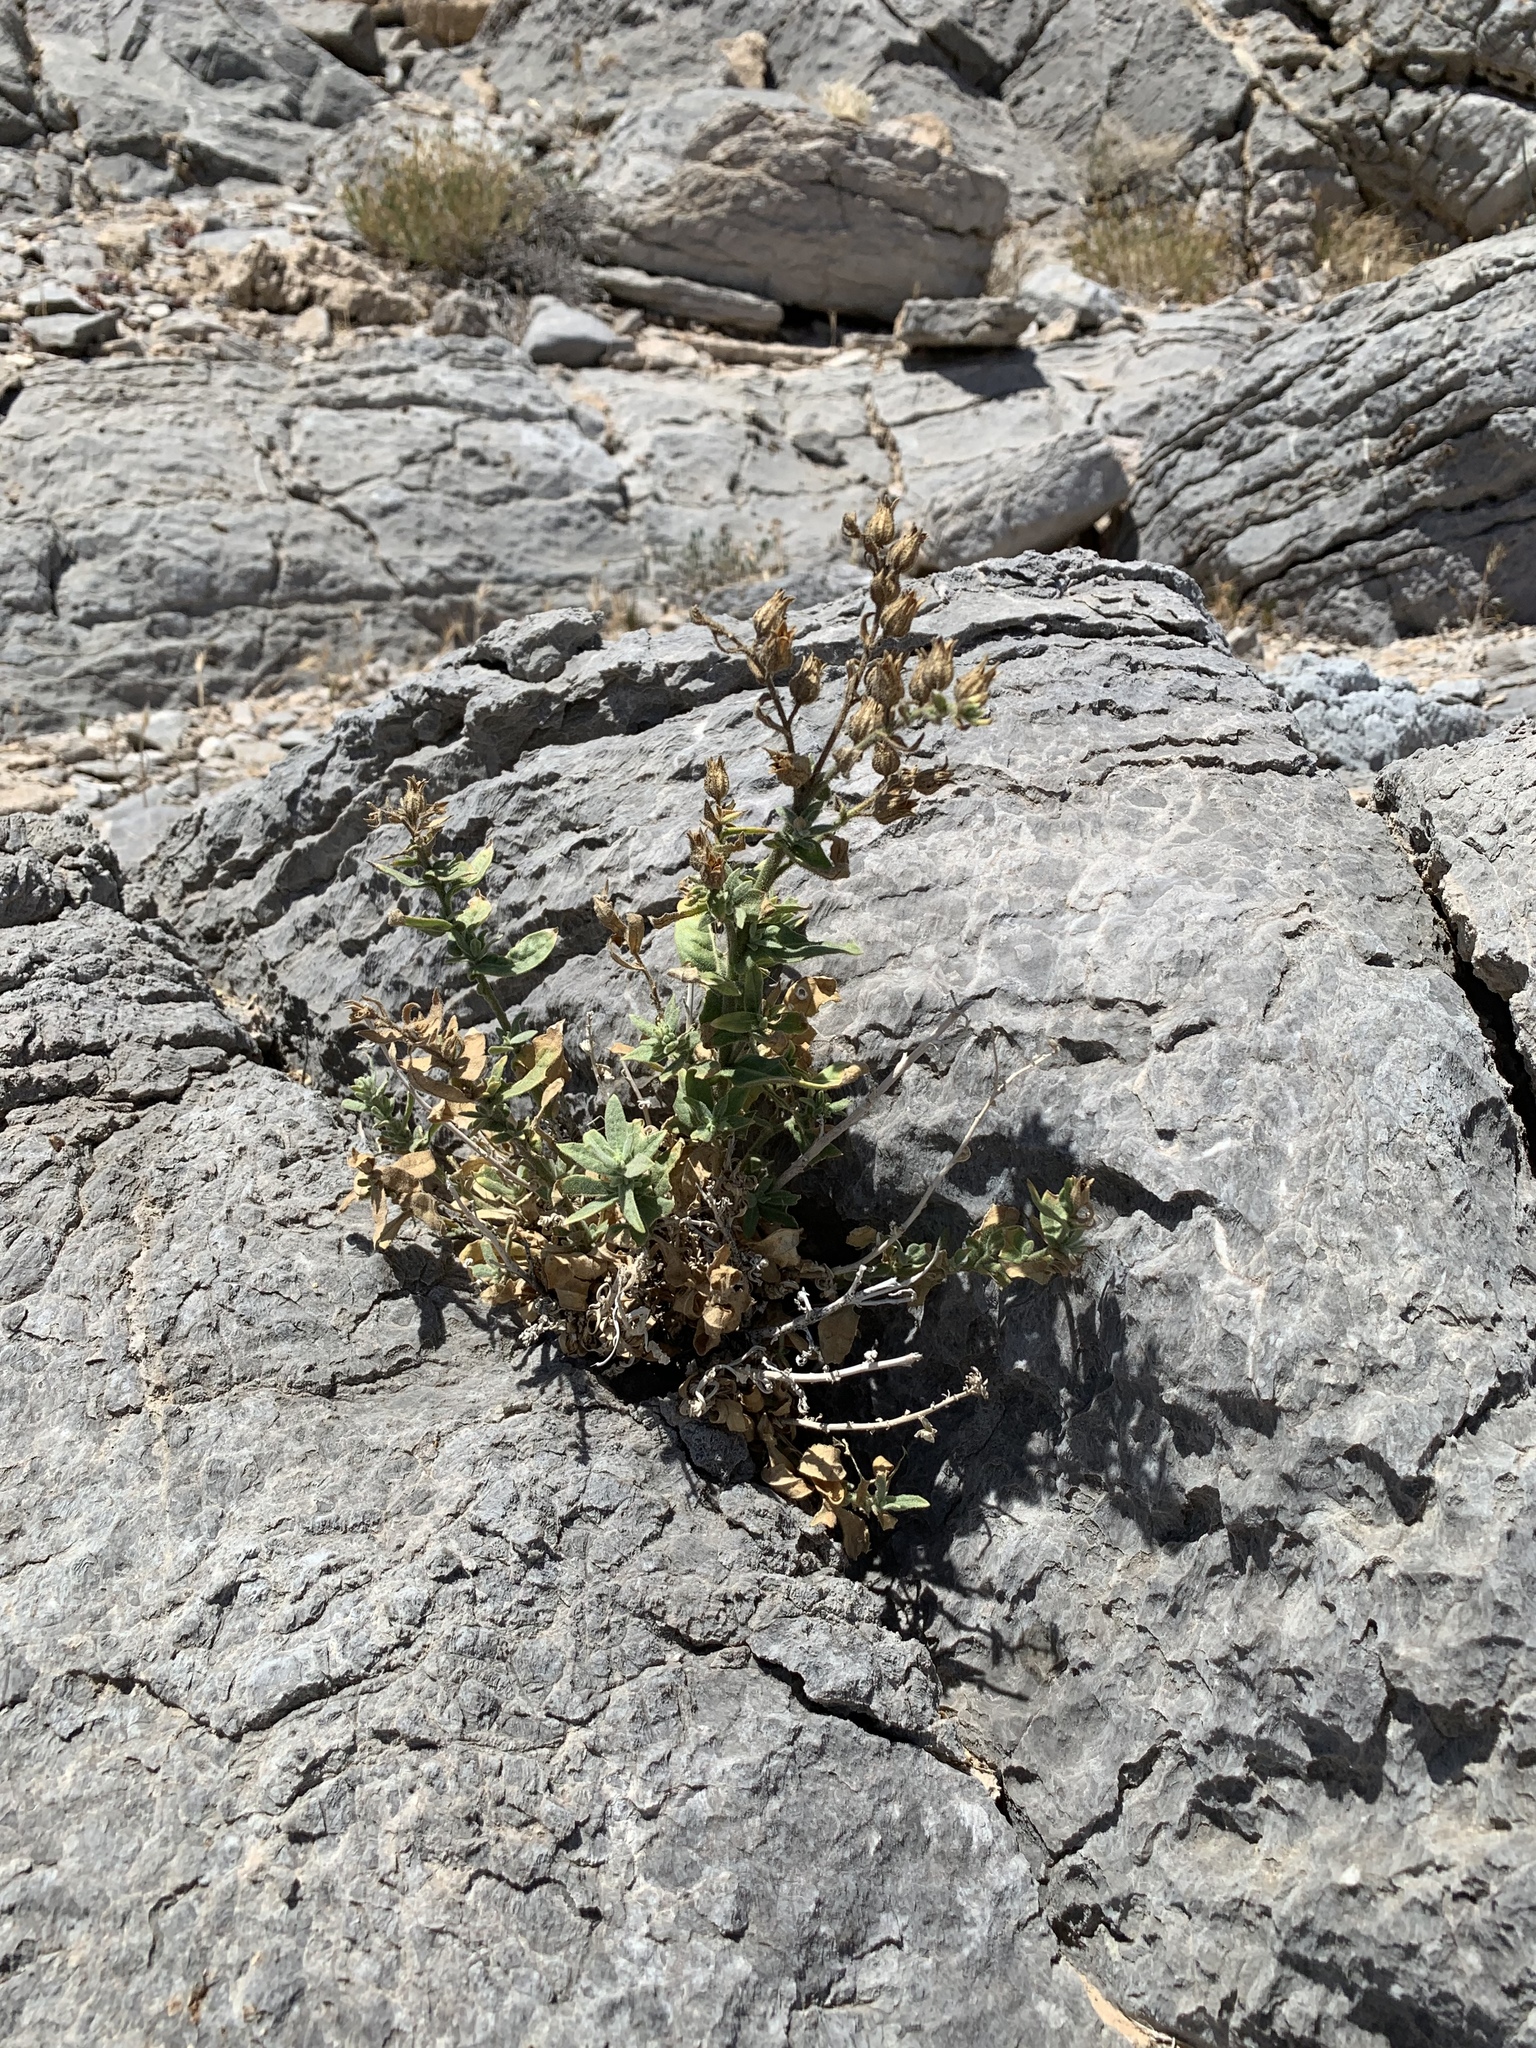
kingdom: Plantae
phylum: Tracheophyta
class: Magnoliopsida
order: Solanales
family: Solanaceae
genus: Nicotiana
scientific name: Nicotiana obtusifolia
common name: Desert tobacco
